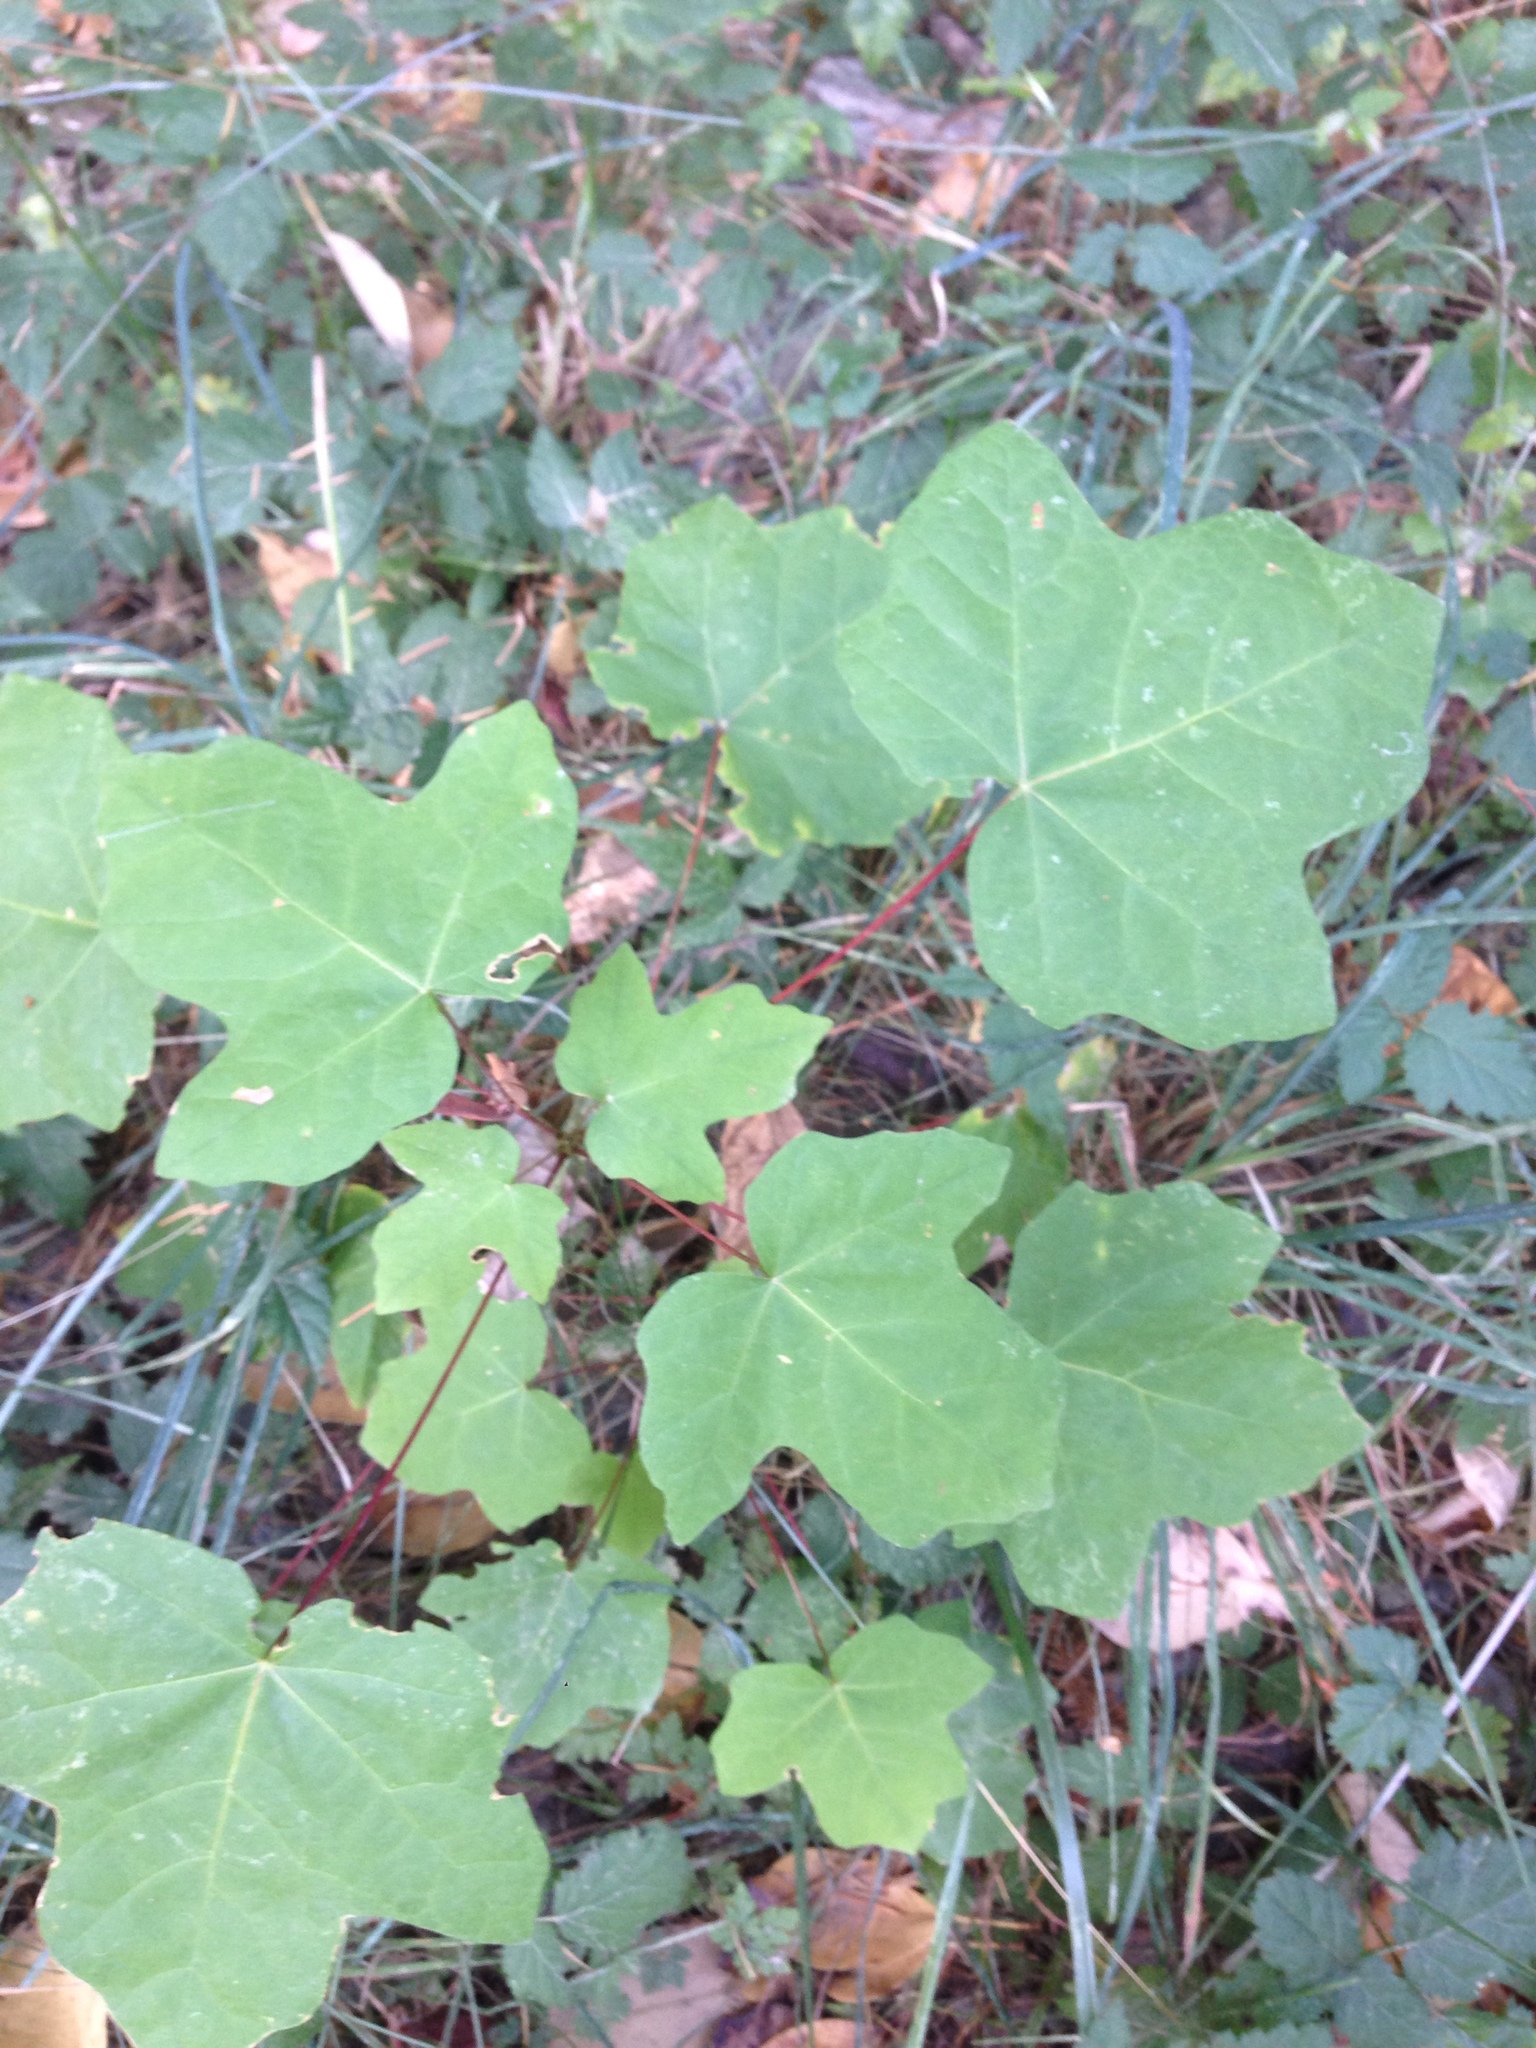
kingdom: Plantae
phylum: Tracheophyta
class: Magnoliopsida
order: Sapindales
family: Sapindaceae
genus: Acer
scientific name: Acer macrophyllum
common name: Oregon maple
